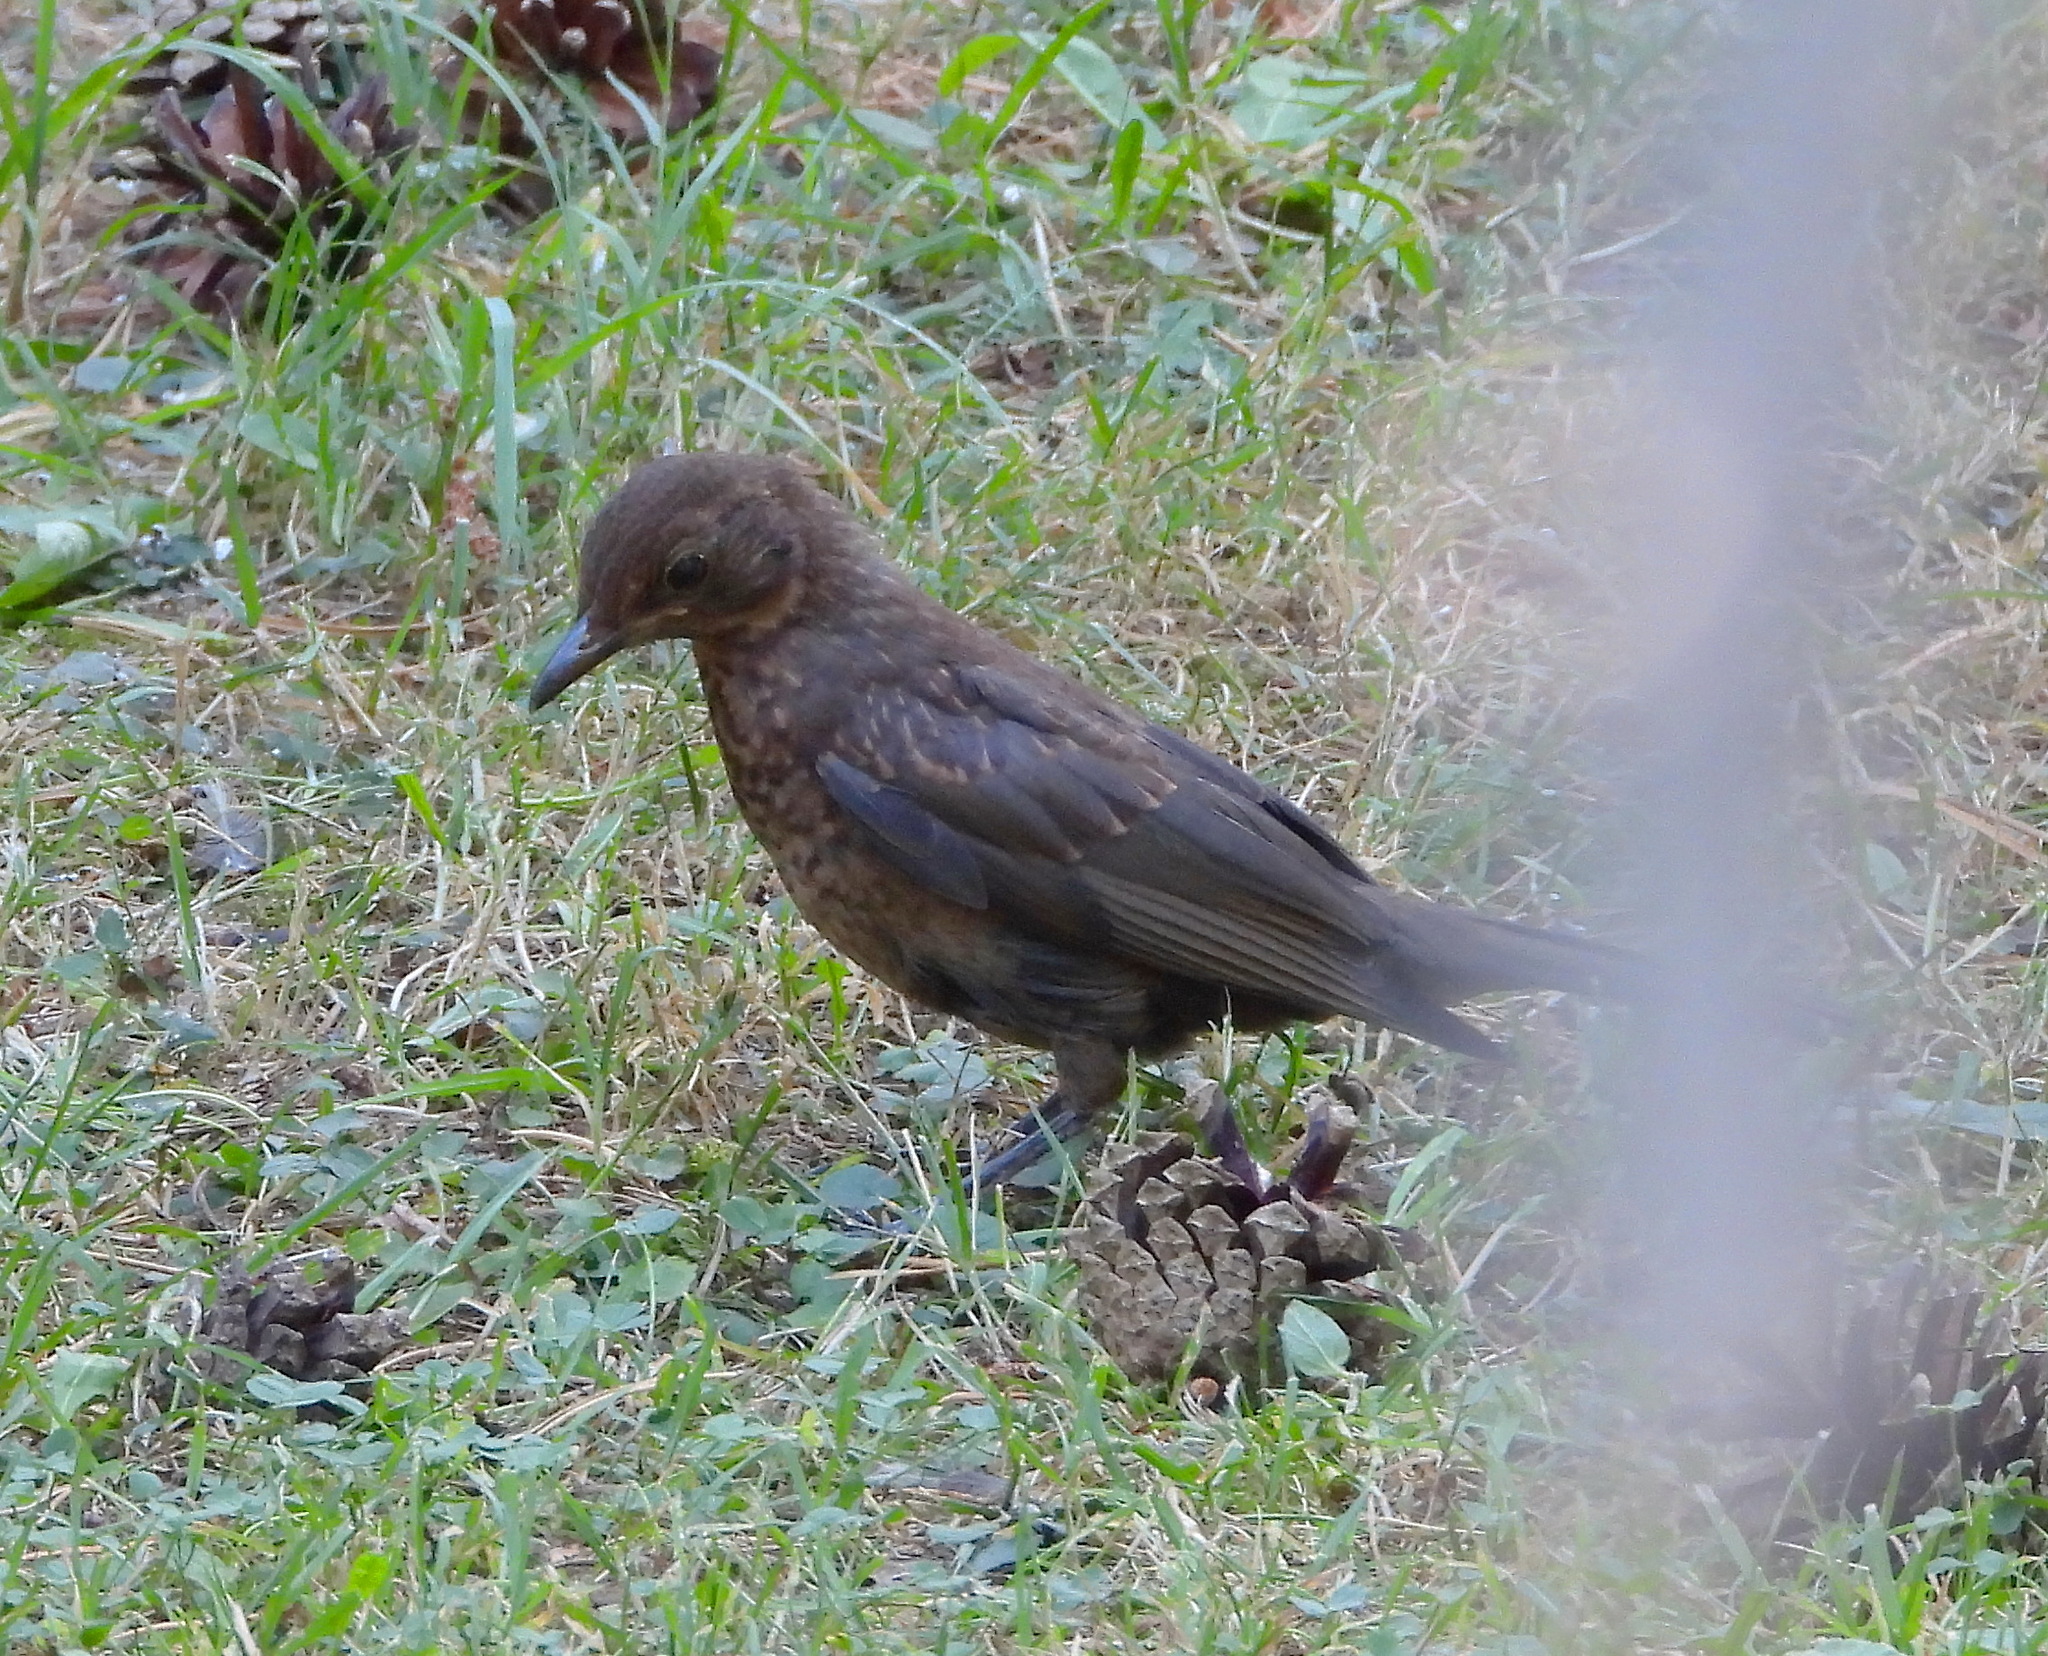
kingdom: Animalia
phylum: Chordata
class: Aves
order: Passeriformes
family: Turdidae
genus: Turdus
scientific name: Turdus merula
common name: Common blackbird
